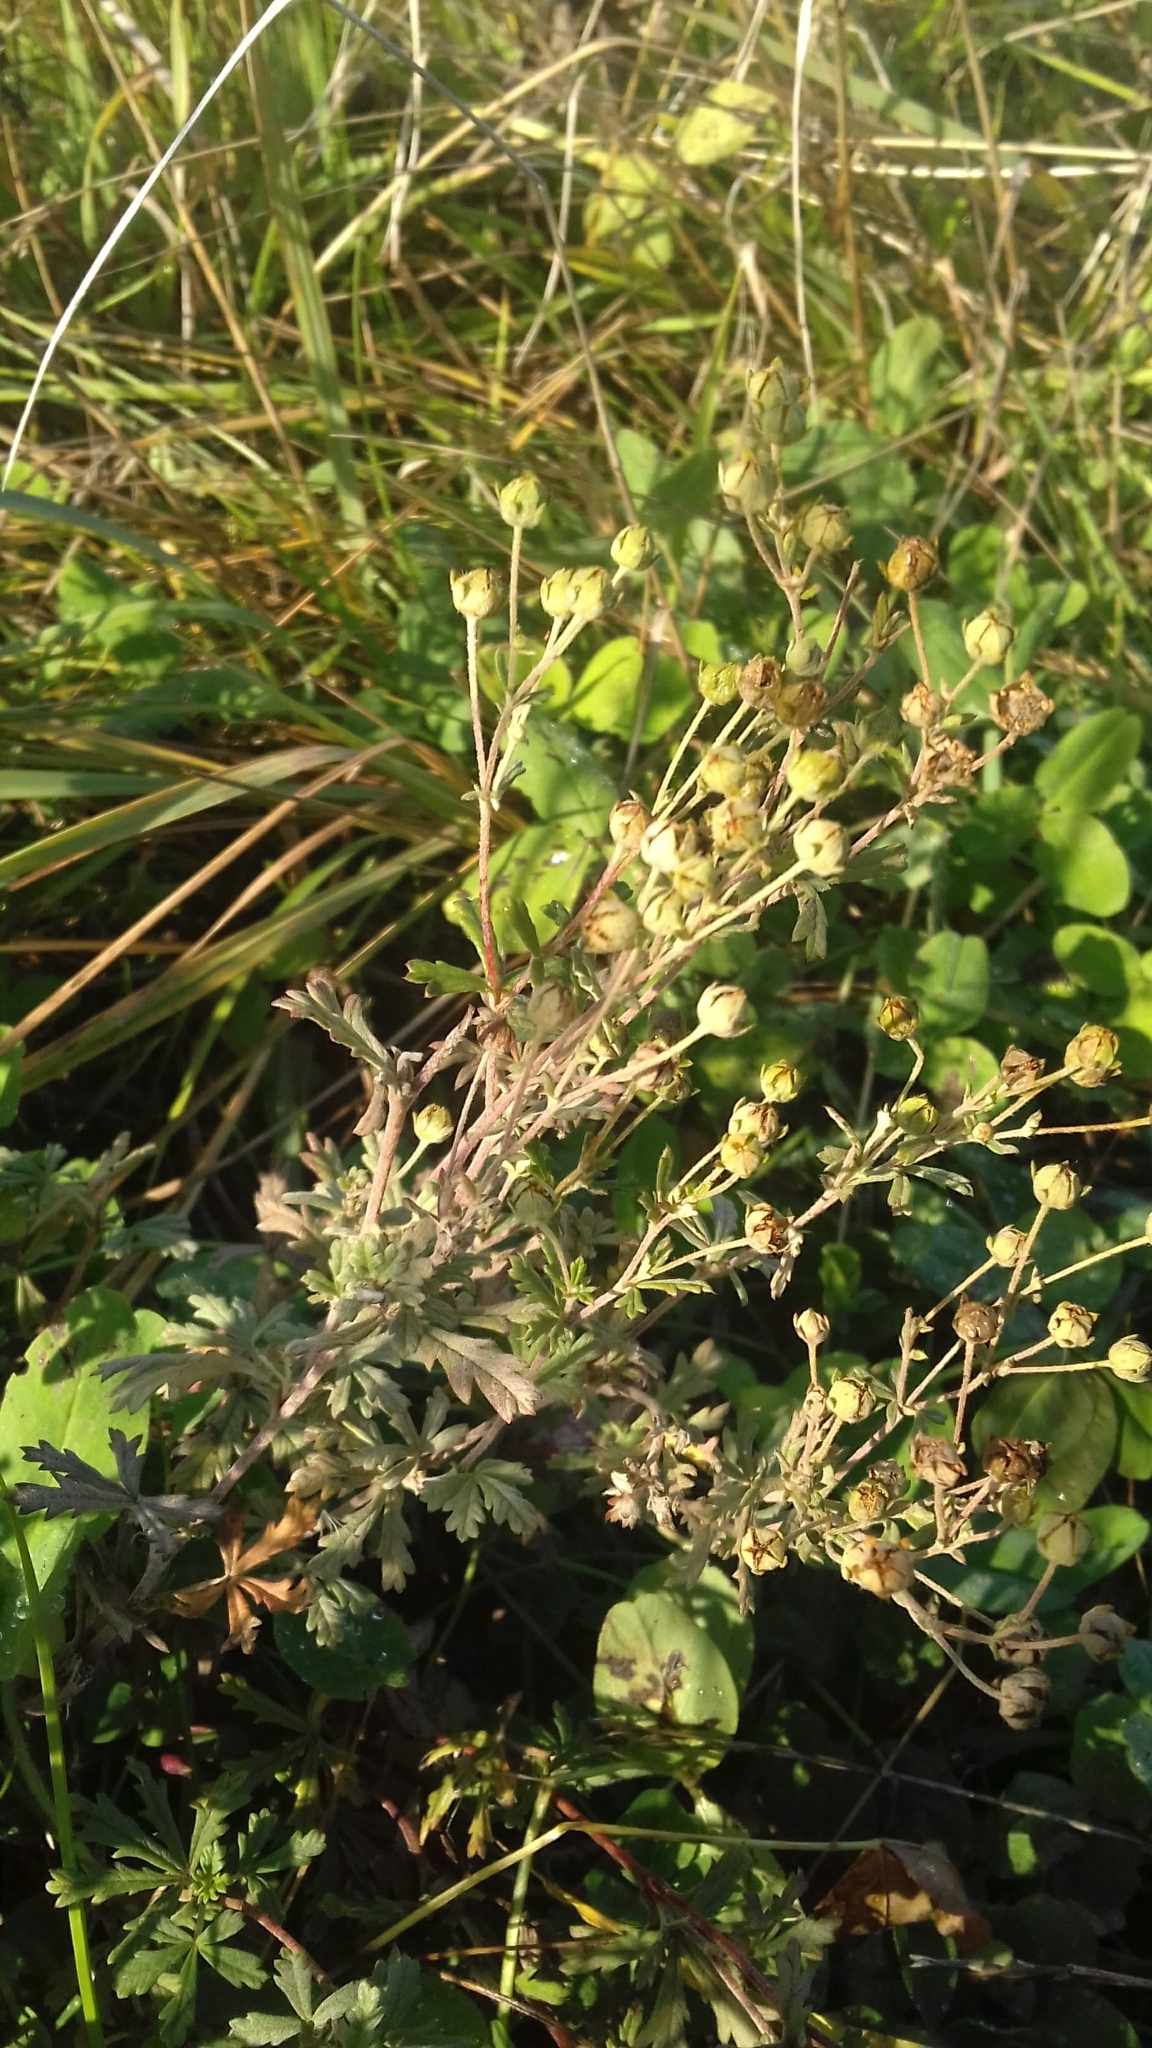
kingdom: Plantae
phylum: Tracheophyta
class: Magnoliopsida
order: Rosales
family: Rosaceae
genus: Potentilla
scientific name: Potentilla argentea
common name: Hoary cinquefoil
